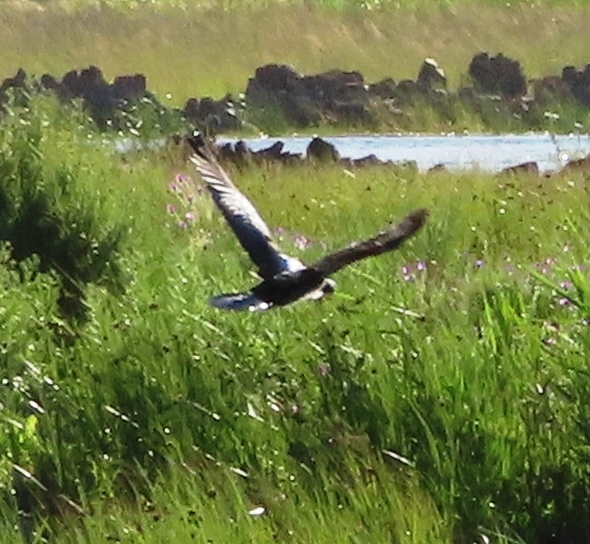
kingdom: Animalia
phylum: Chordata
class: Aves
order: Accipitriformes
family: Accipitridae
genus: Circus
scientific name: Circus ranivorus
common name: African marsh-harrier
